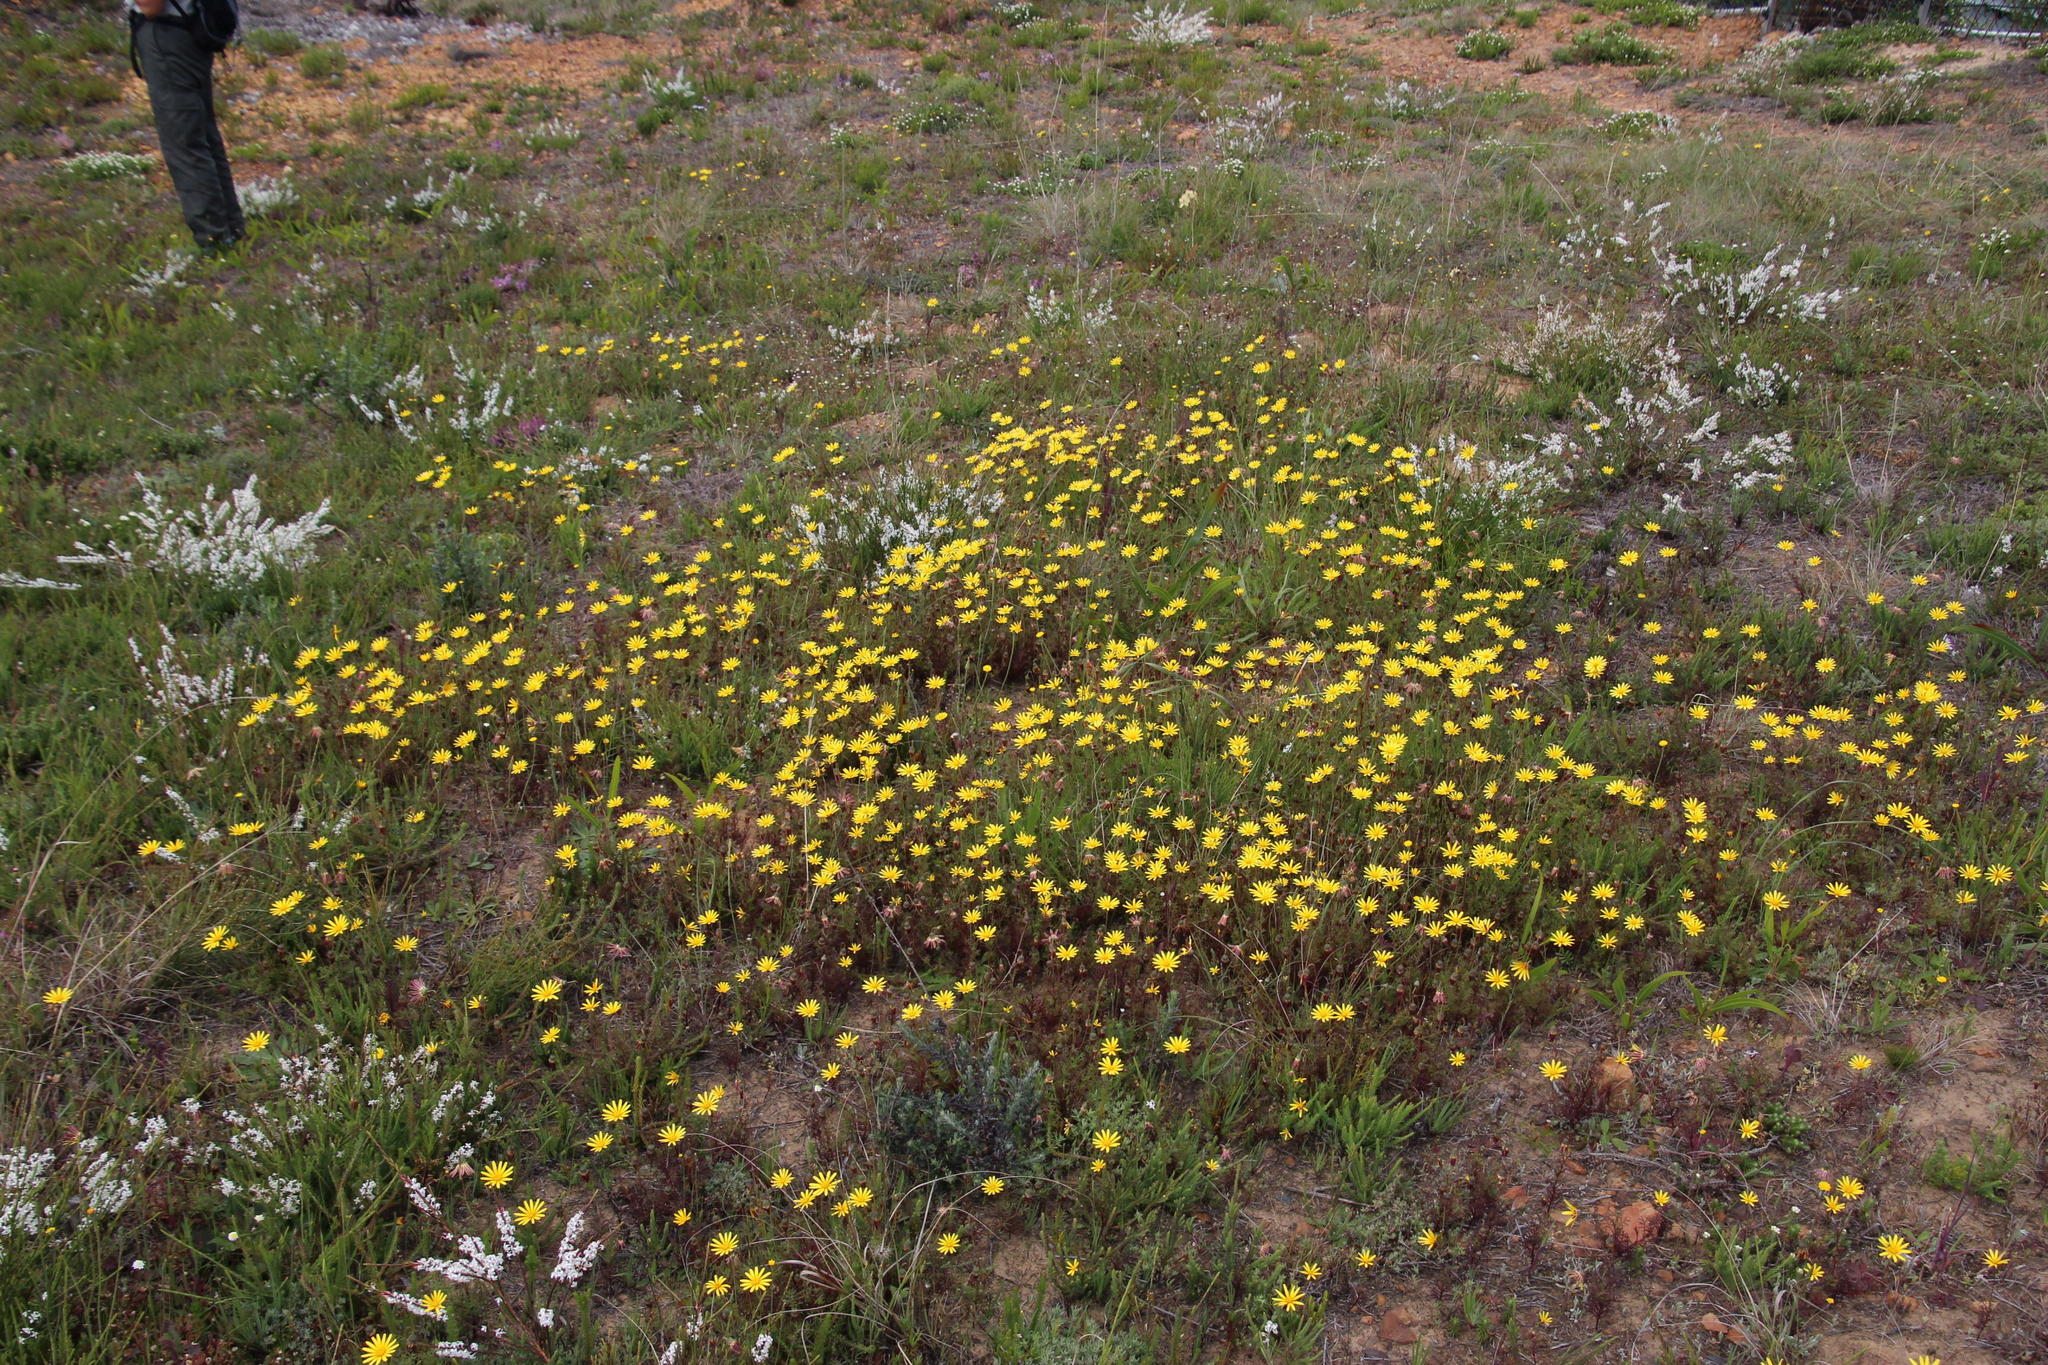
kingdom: Plantae
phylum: Tracheophyta
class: Magnoliopsida
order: Asterales
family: Asteraceae
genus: Ursinia
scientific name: Ursinia anthemoides
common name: Ursinia
